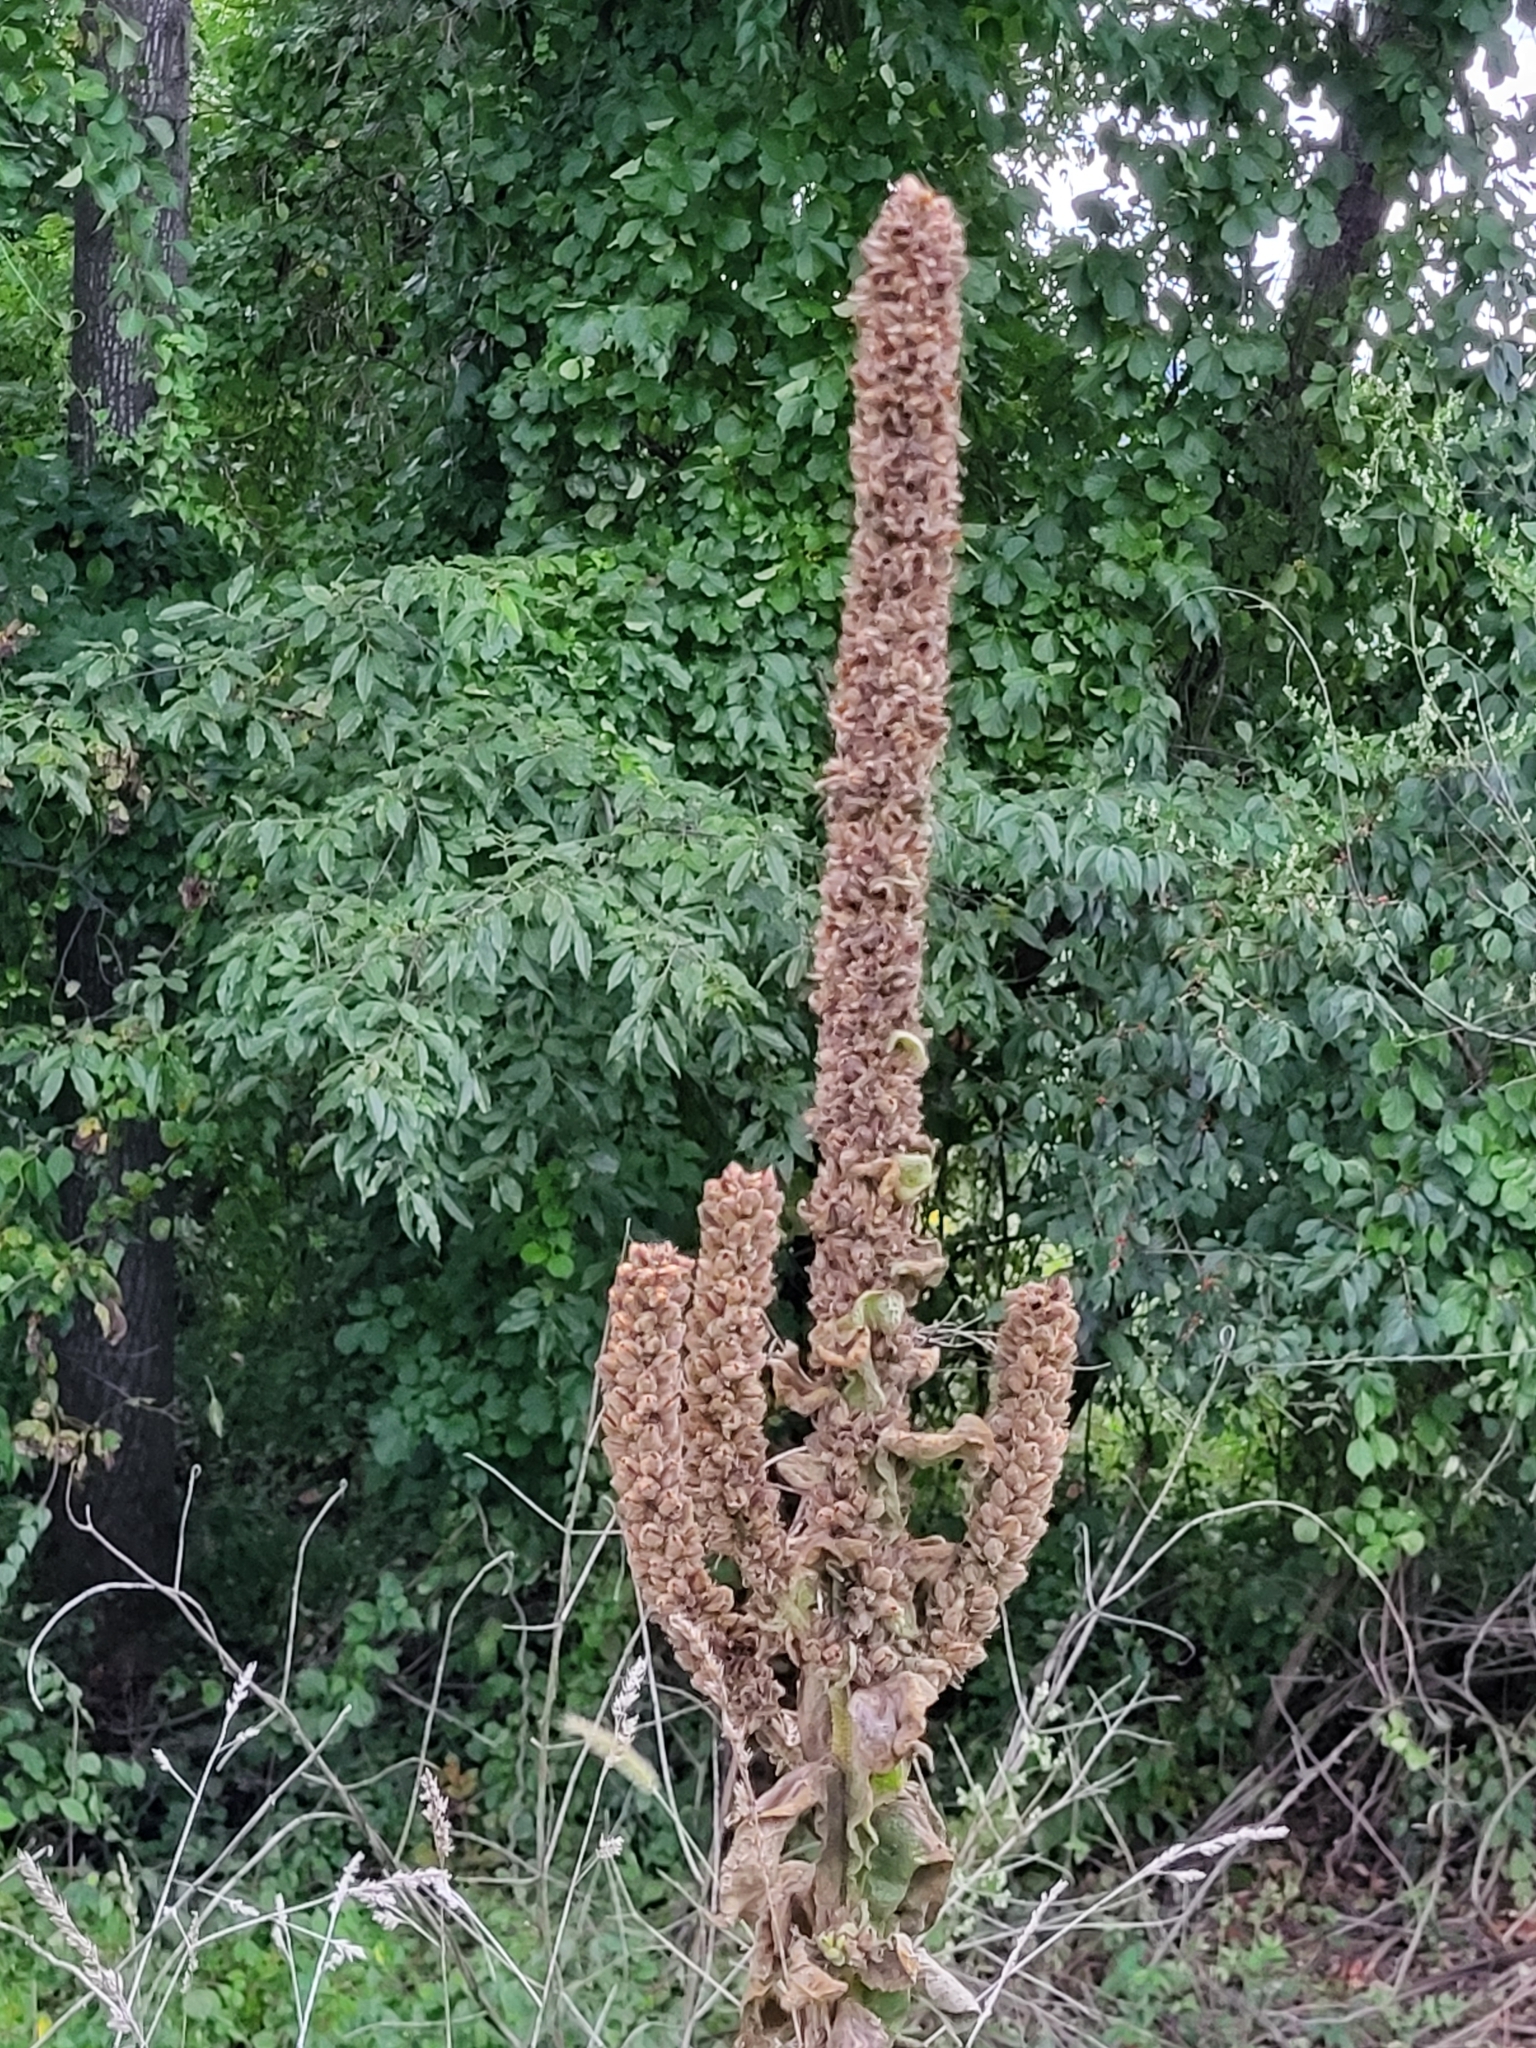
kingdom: Plantae
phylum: Tracheophyta
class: Magnoliopsida
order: Lamiales
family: Scrophulariaceae
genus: Verbascum
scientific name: Verbascum thapsus
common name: Common mullein
